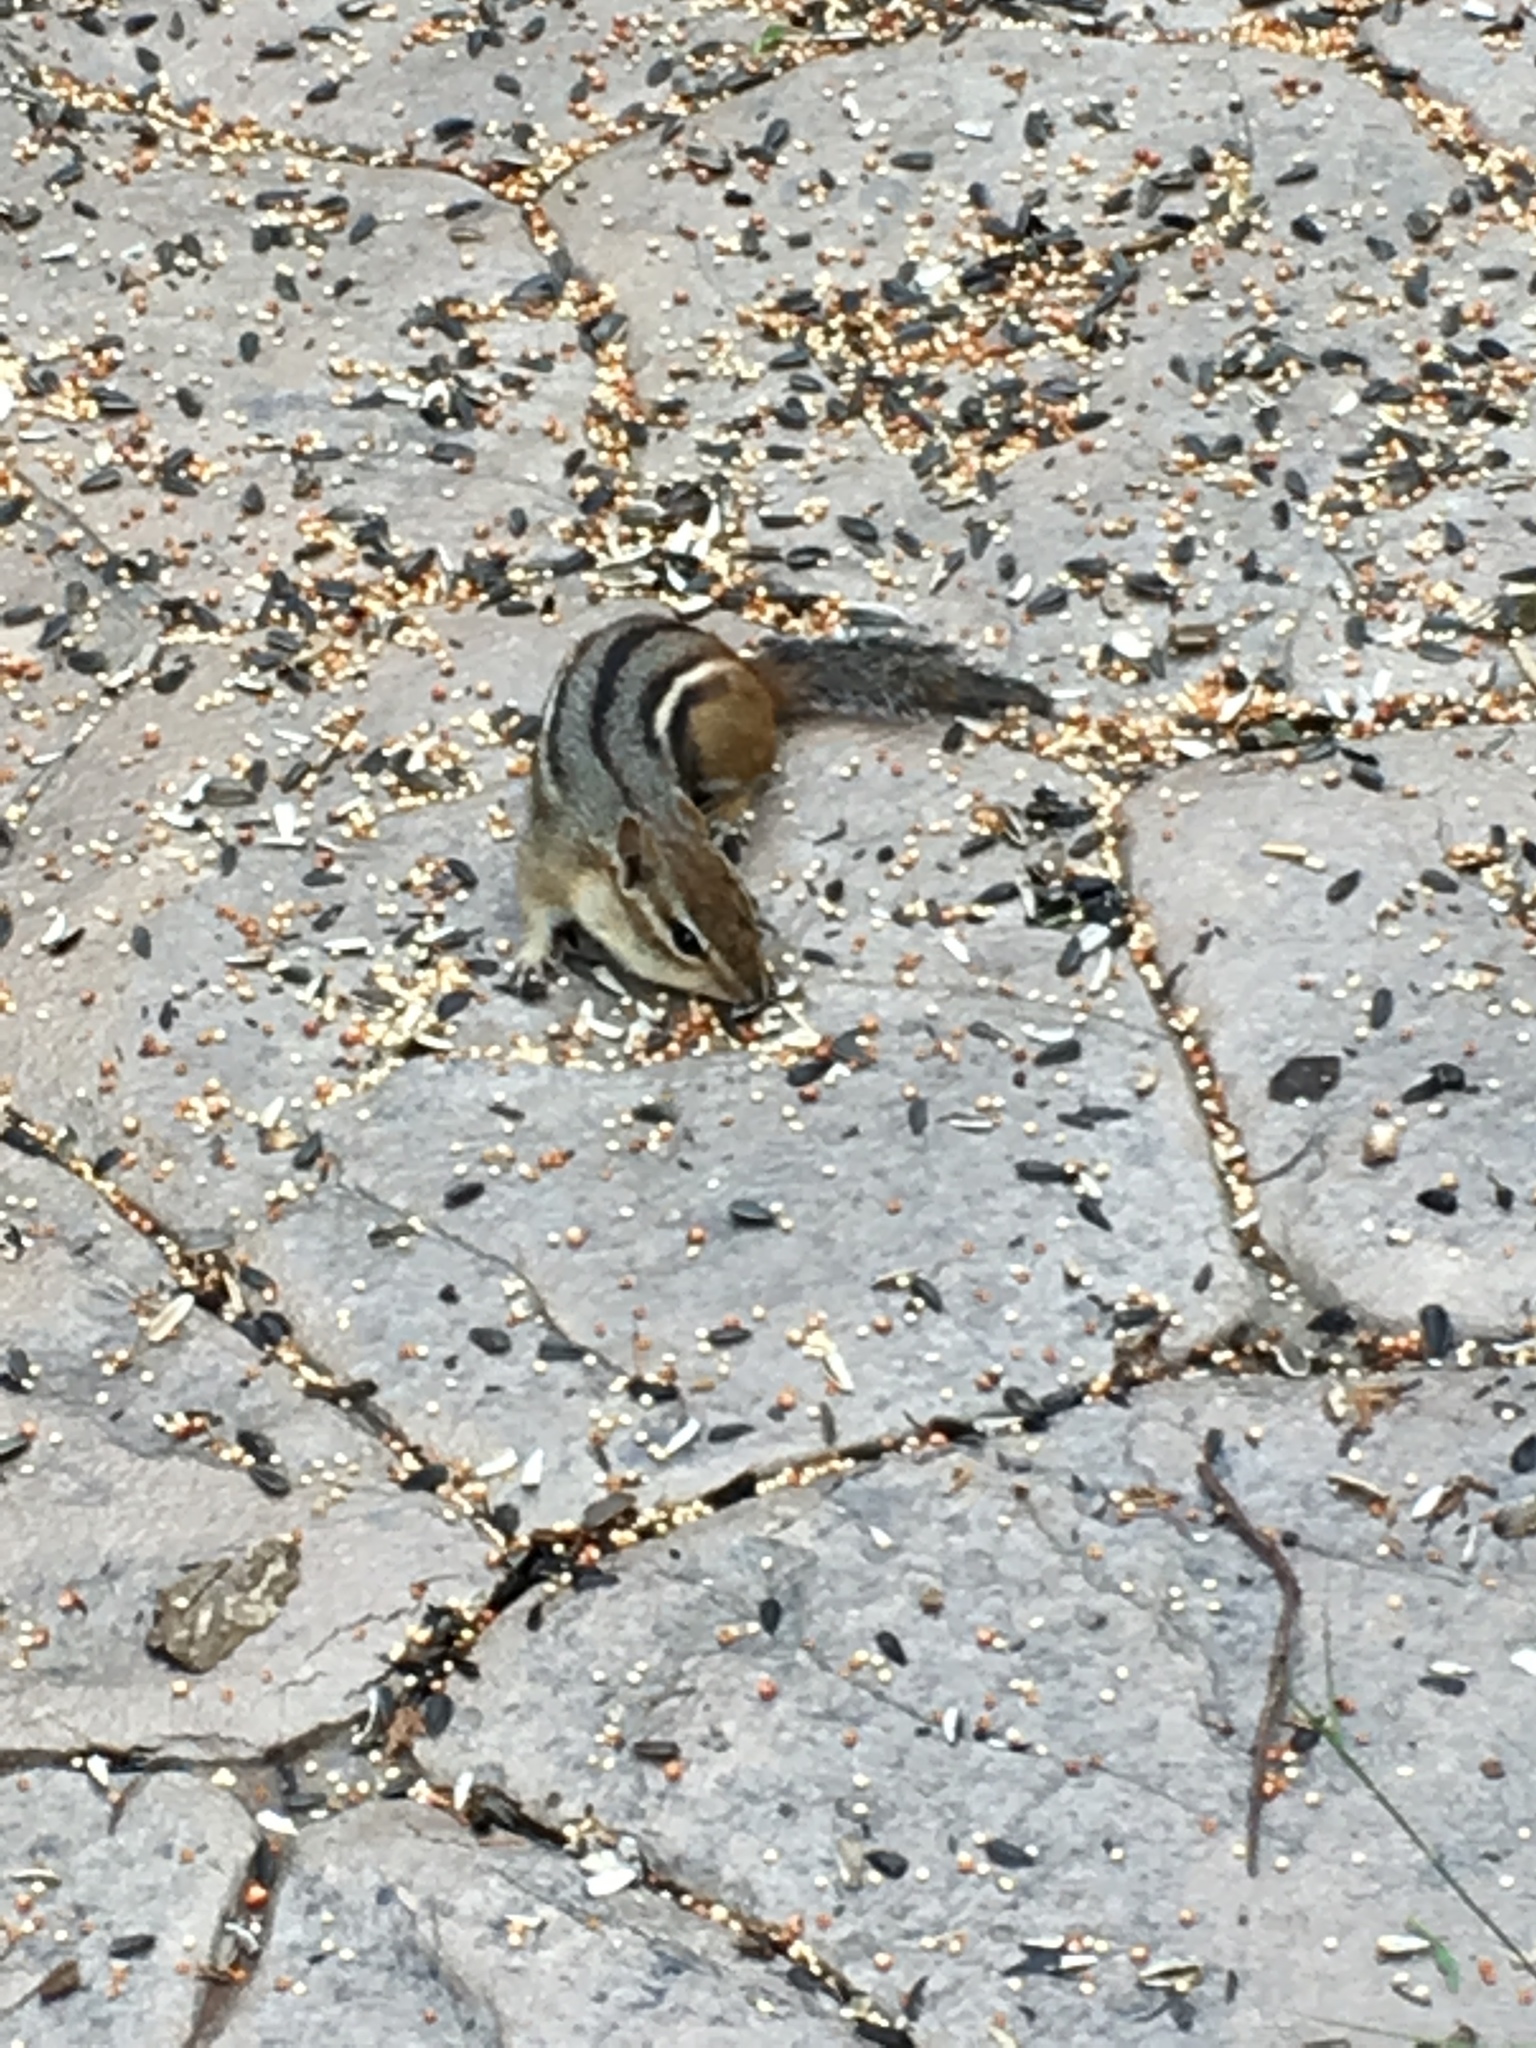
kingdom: Animalia
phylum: Chordata
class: Mammalia
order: Rodentia
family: Sciuridae
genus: Tamias
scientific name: Tamias striatus
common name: Eastern chipmunk
